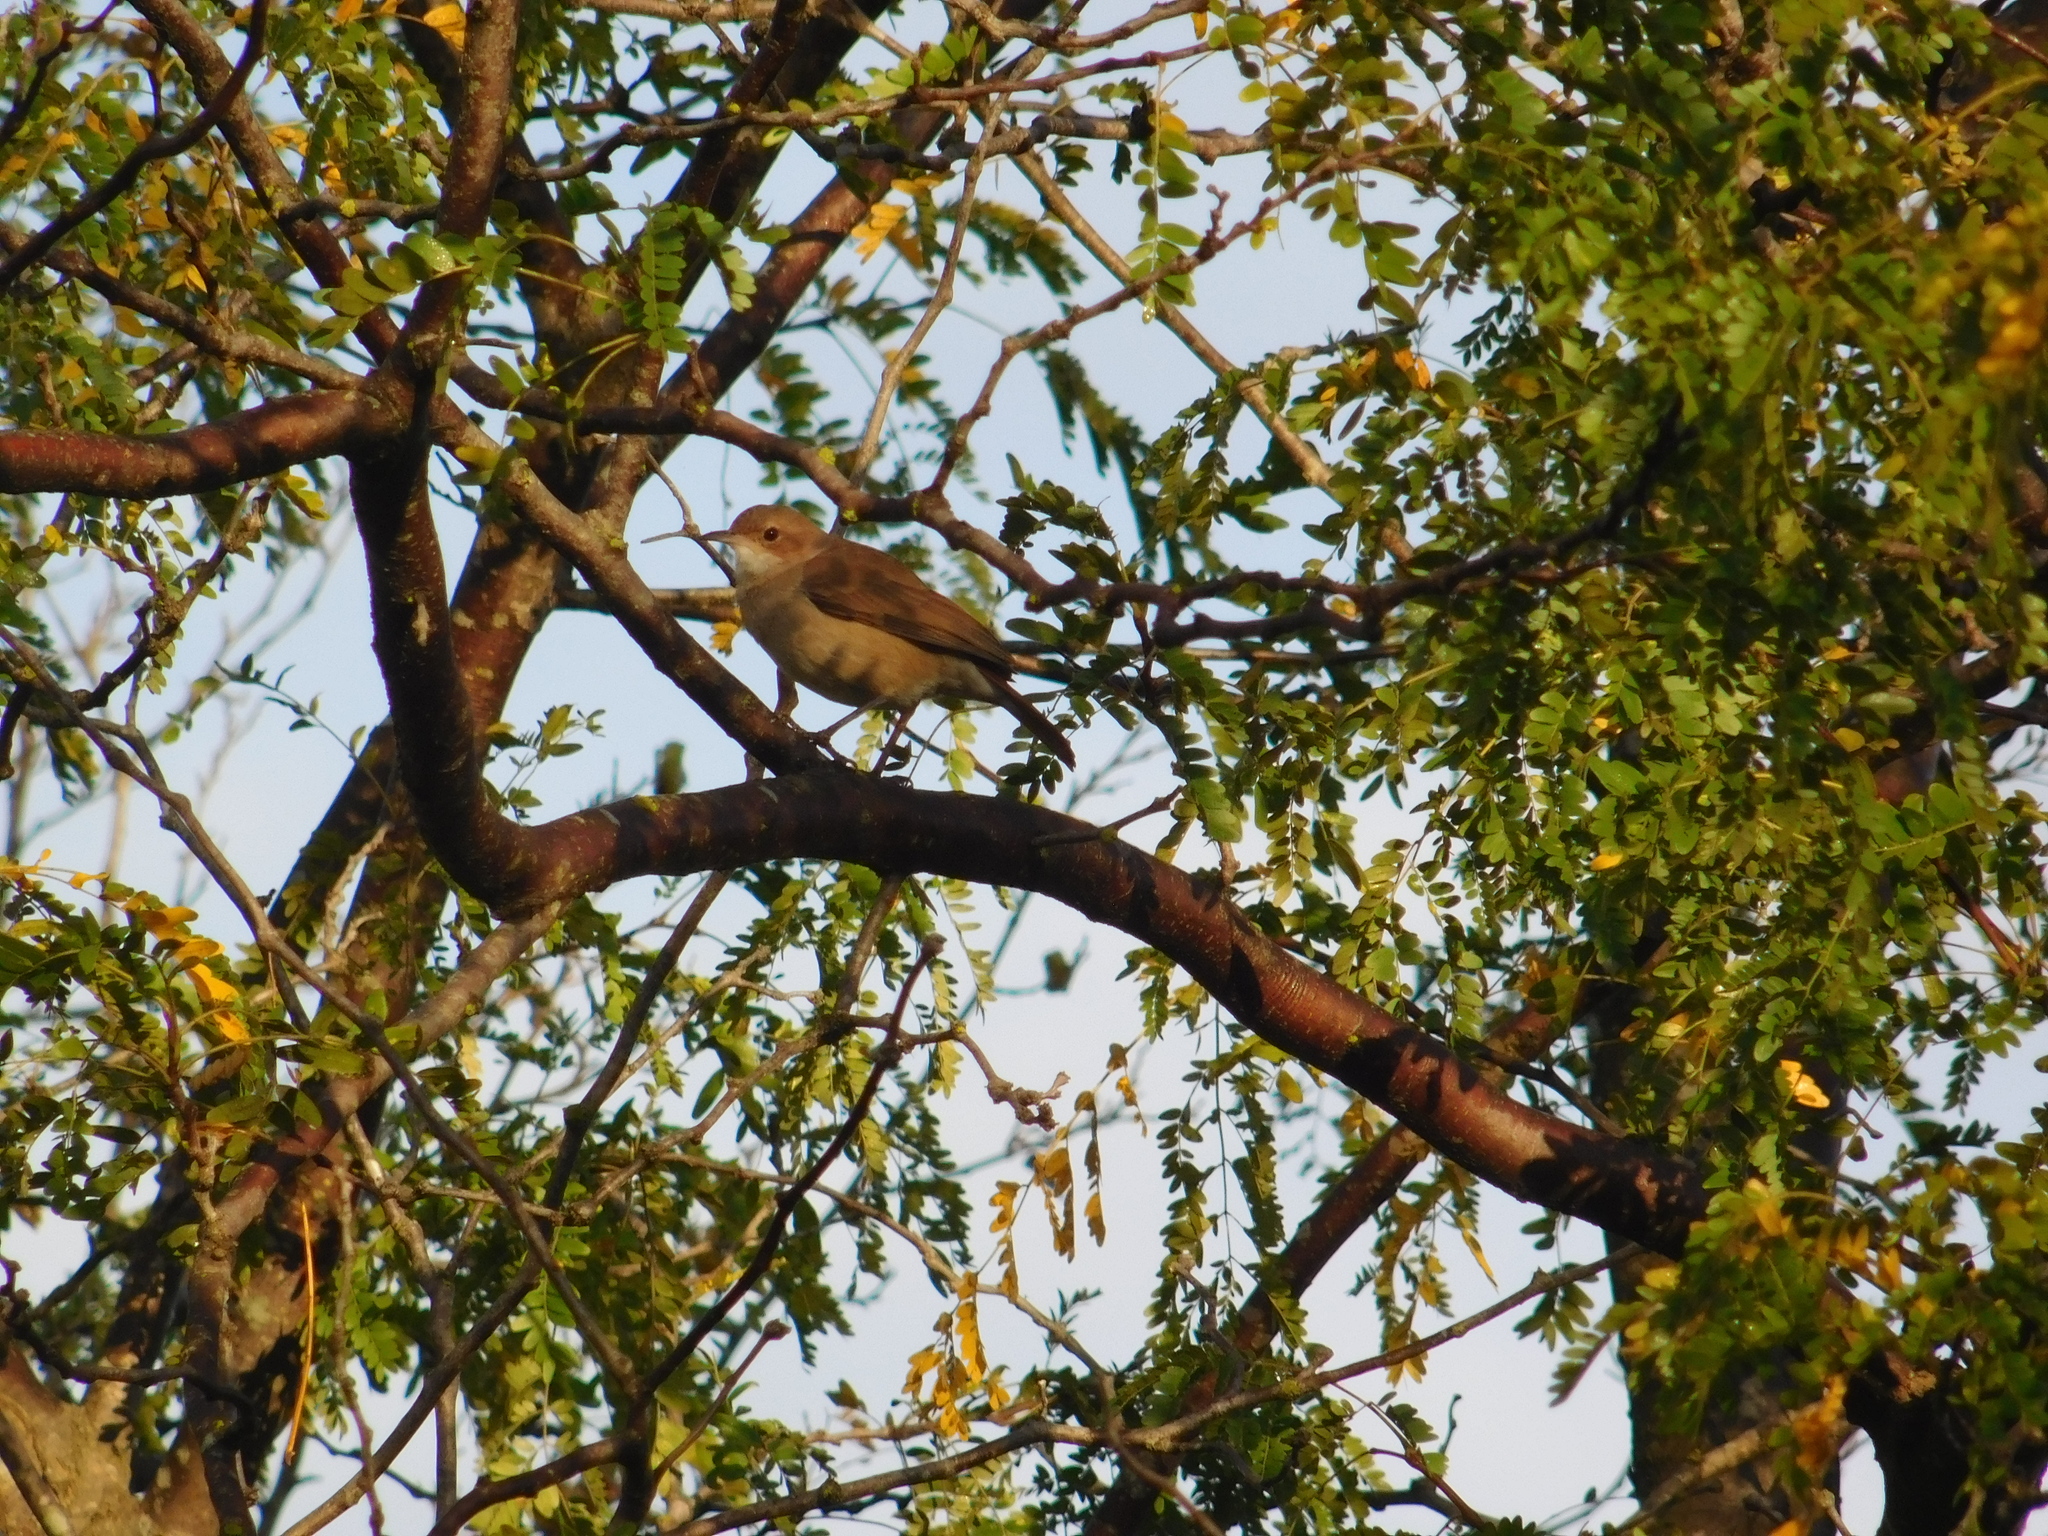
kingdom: Animalia
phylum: Chordata
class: Aves
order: Passeriformes
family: Furnariidae
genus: Furnarius
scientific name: Furnarius rufus
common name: Rufous hornero
